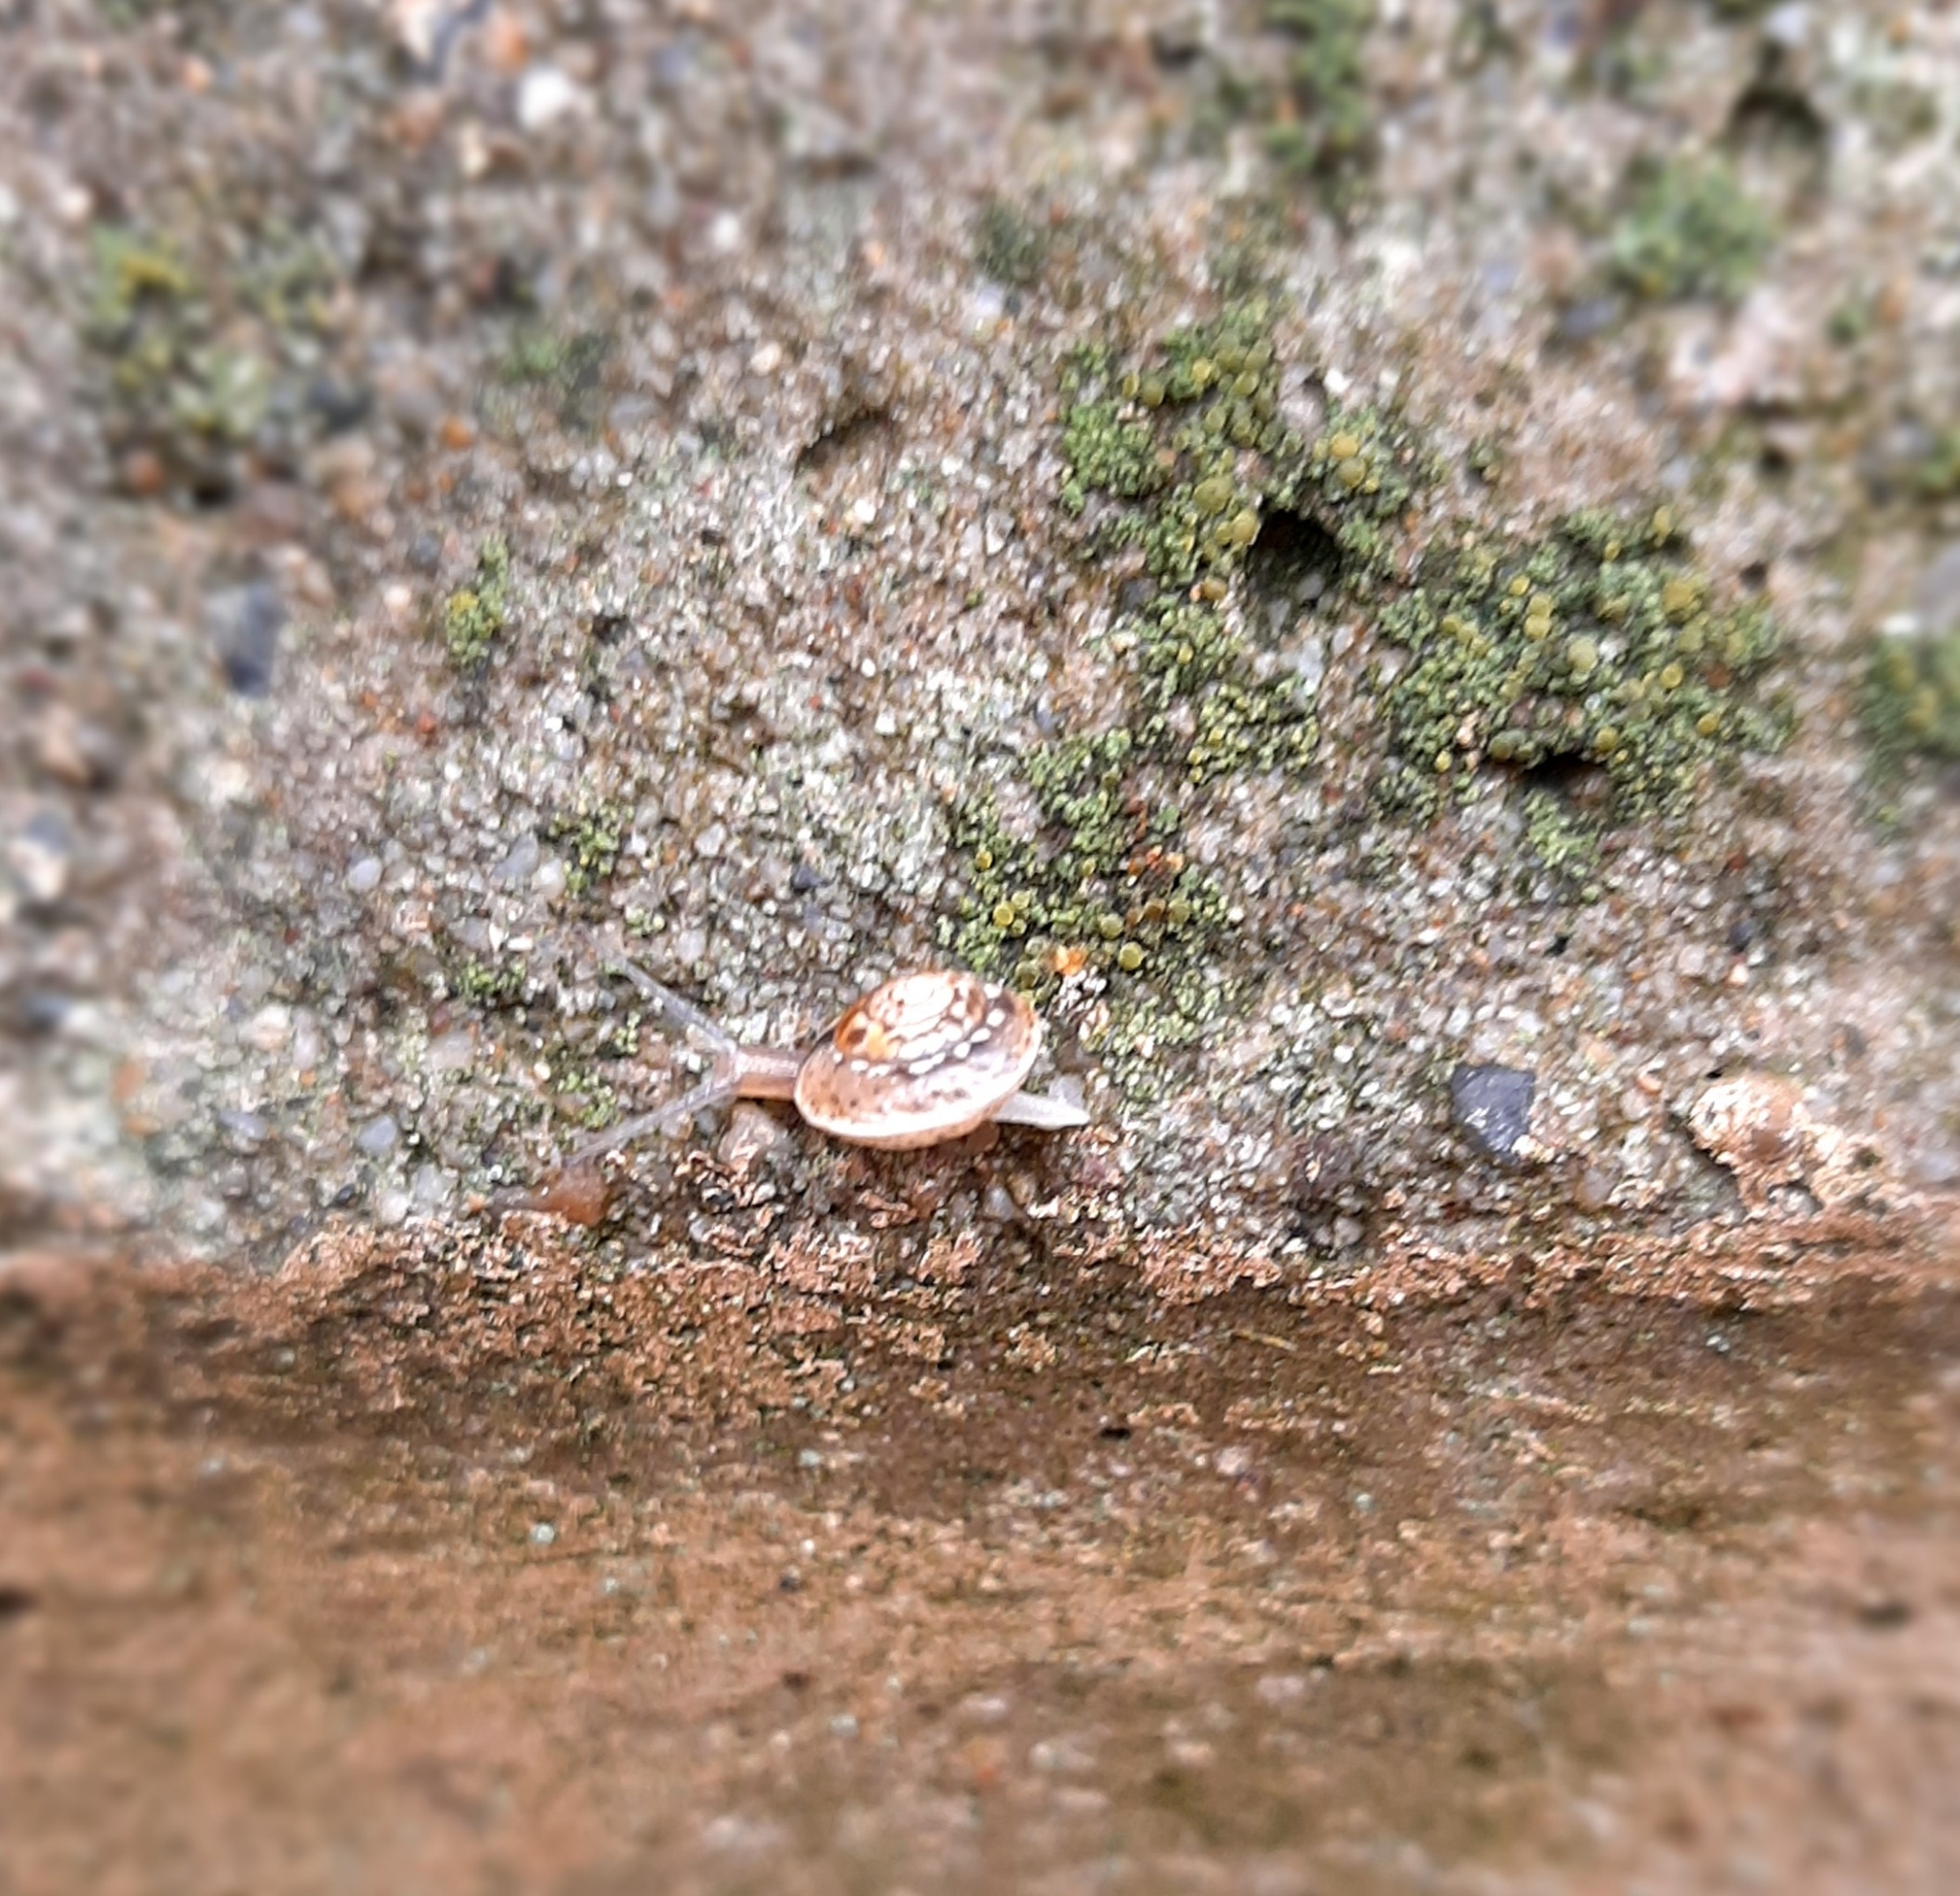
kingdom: Animalia
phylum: Mollusca
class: Gastropoda
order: Stylommatophora
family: Hygromiidae
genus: Hygromia
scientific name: Hygromia cinctella
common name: Girdled snail
